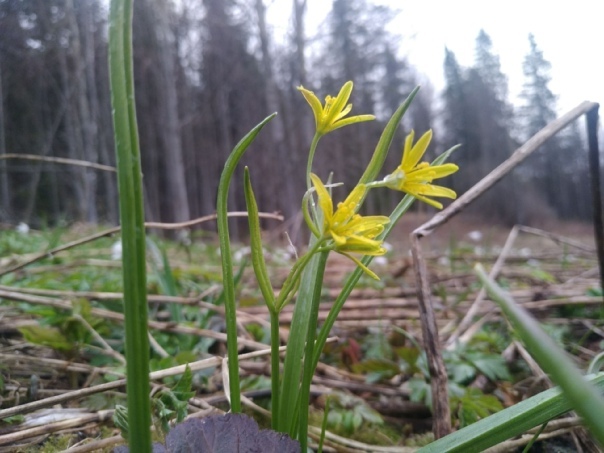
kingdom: Plantae
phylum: Tracheophyta
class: Liliopsida
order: Liliales
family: Liliaceae
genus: Gagea
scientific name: Gagea lutea
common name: Yellow star-of-bethlehem
